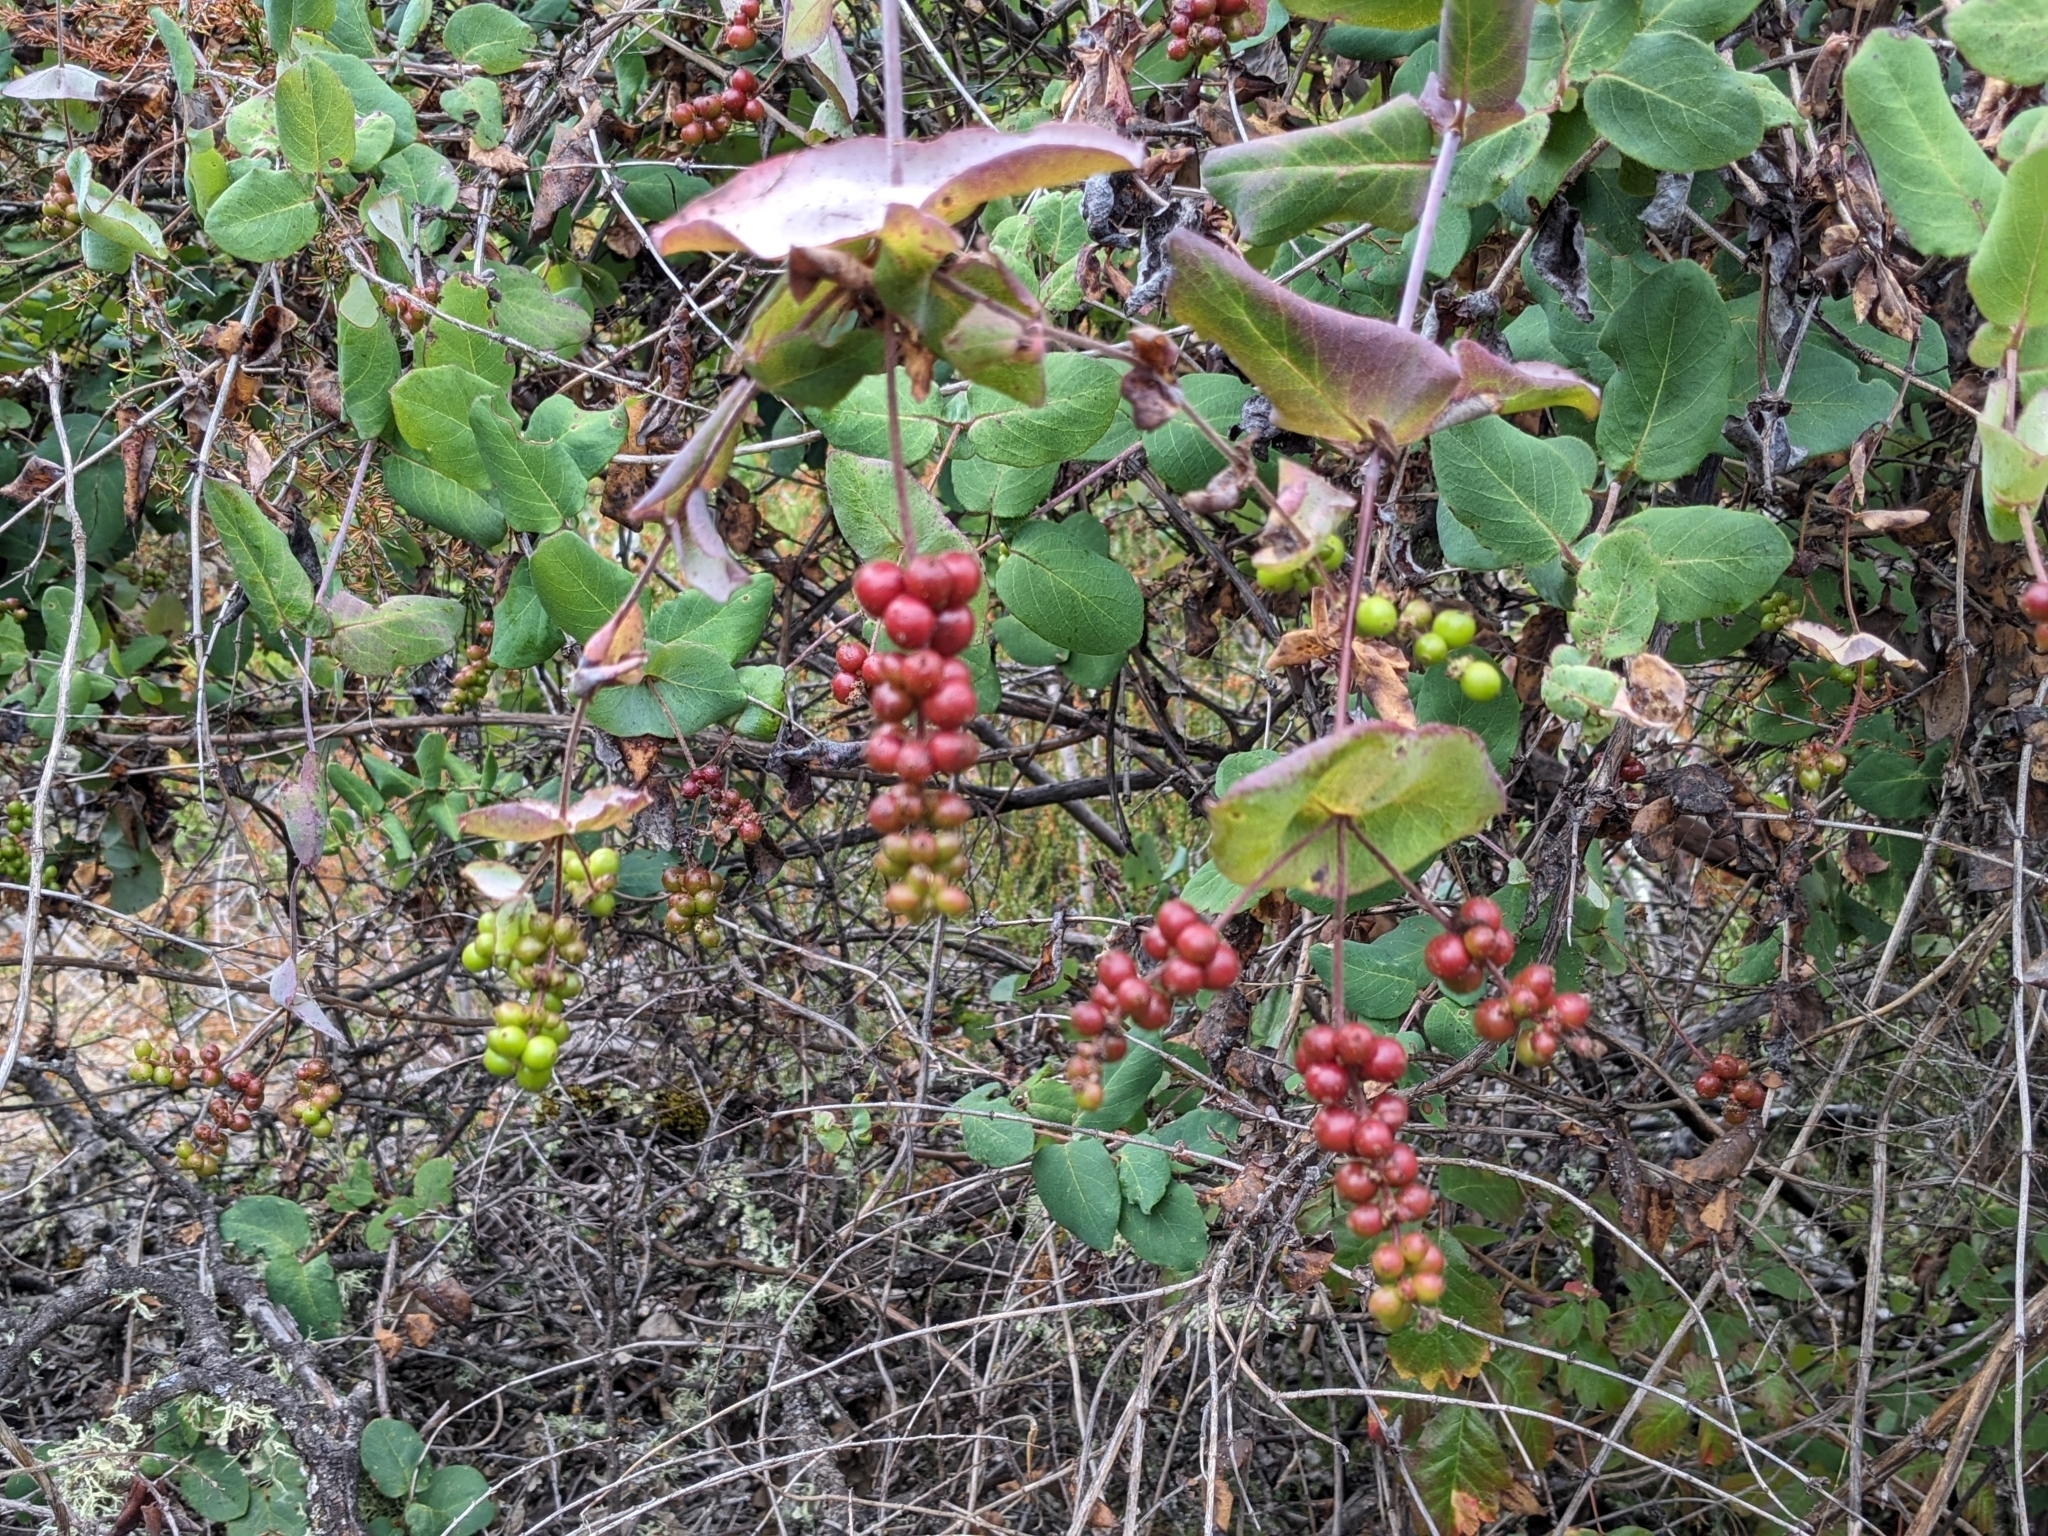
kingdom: Plantae
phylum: Tracheophyta
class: Magnoliopsida
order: Dipsacales
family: Caprifoliaceae
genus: Lonicera
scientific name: Lonicera hispidula
